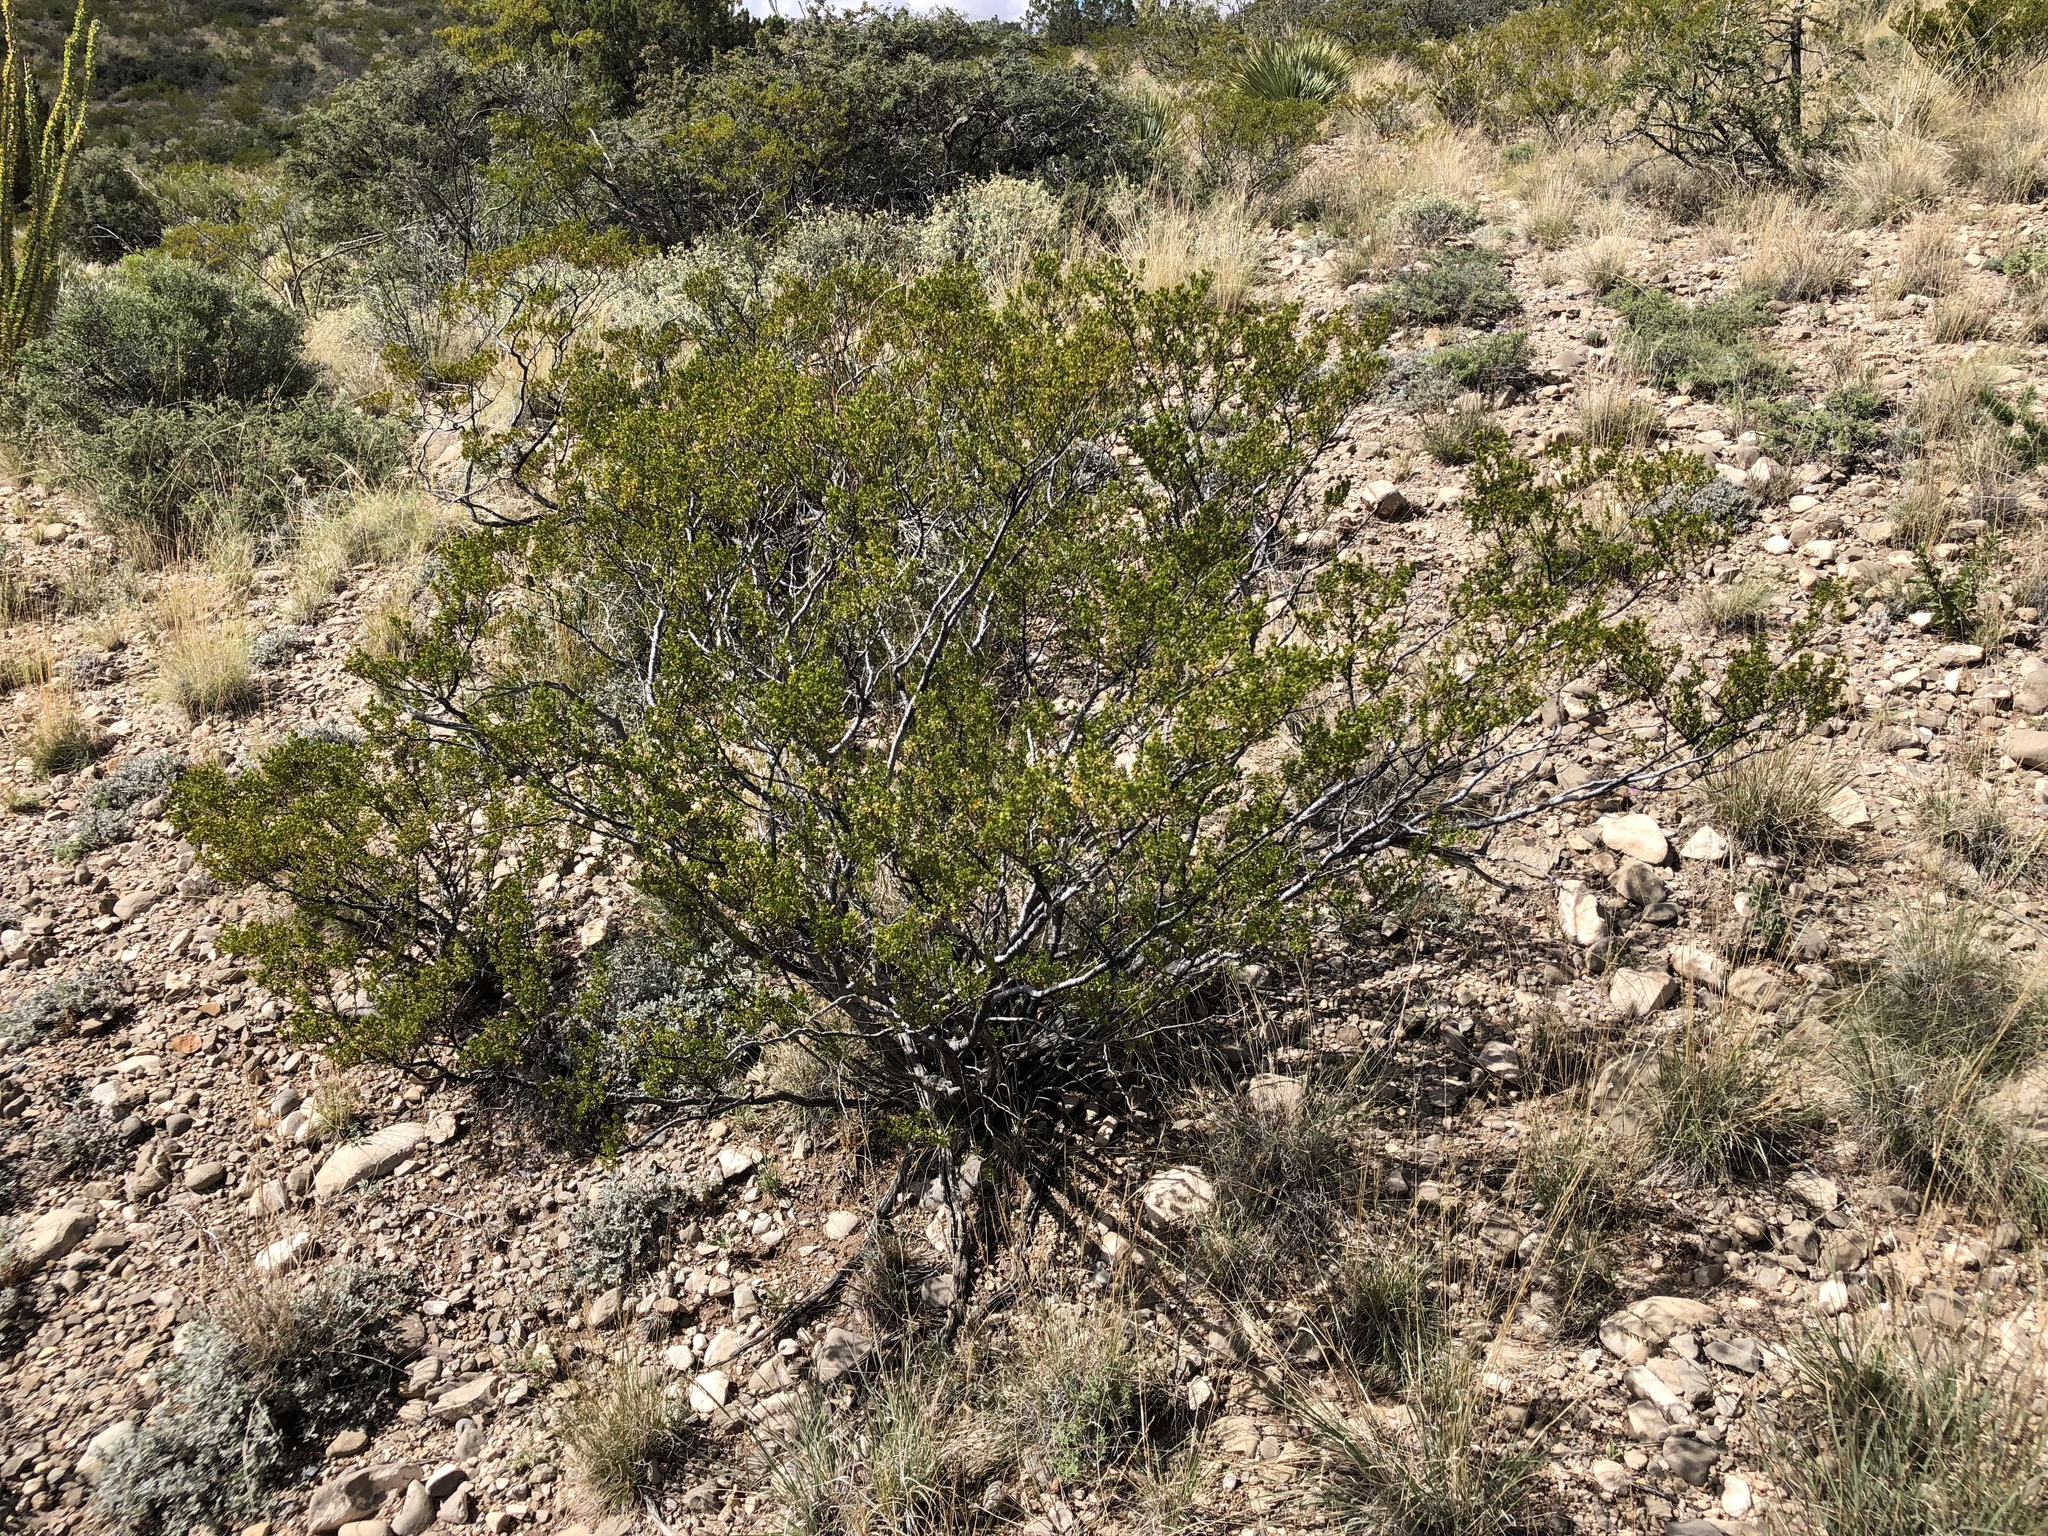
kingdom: Plantae
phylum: Tracheophyta
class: Magnoliopsida
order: Zygophyllales
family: Zygophyllaceae
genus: Larrea
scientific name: Larrea tridentata
